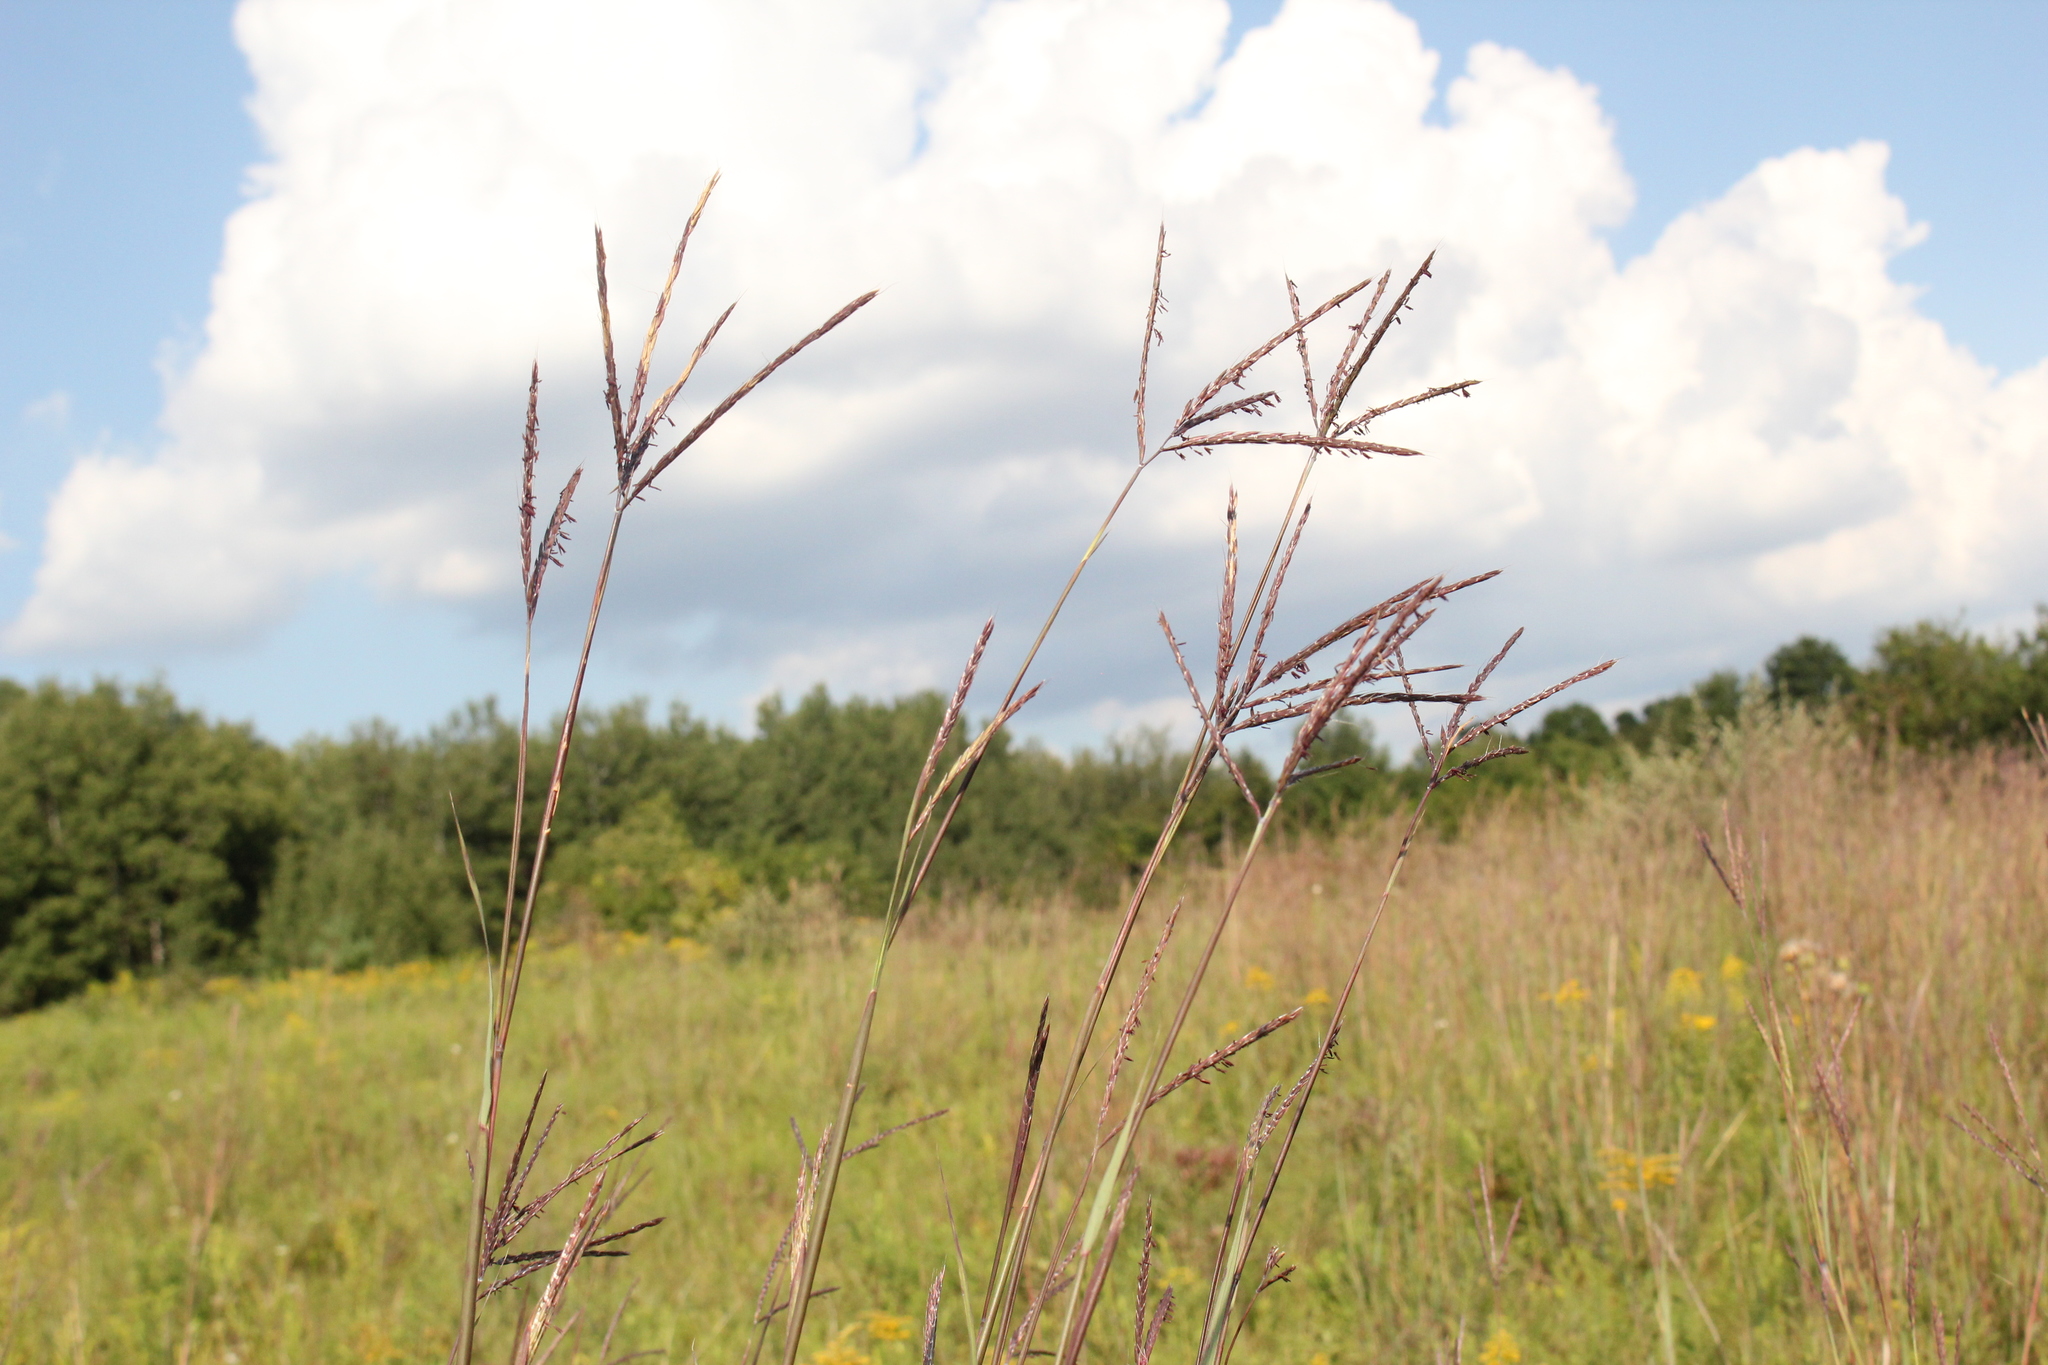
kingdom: Plantae
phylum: Tracheophyta
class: Liliopsida
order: Poales
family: Poaceae
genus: Andropogon
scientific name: Andropogon gerardi
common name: Big bluestem
